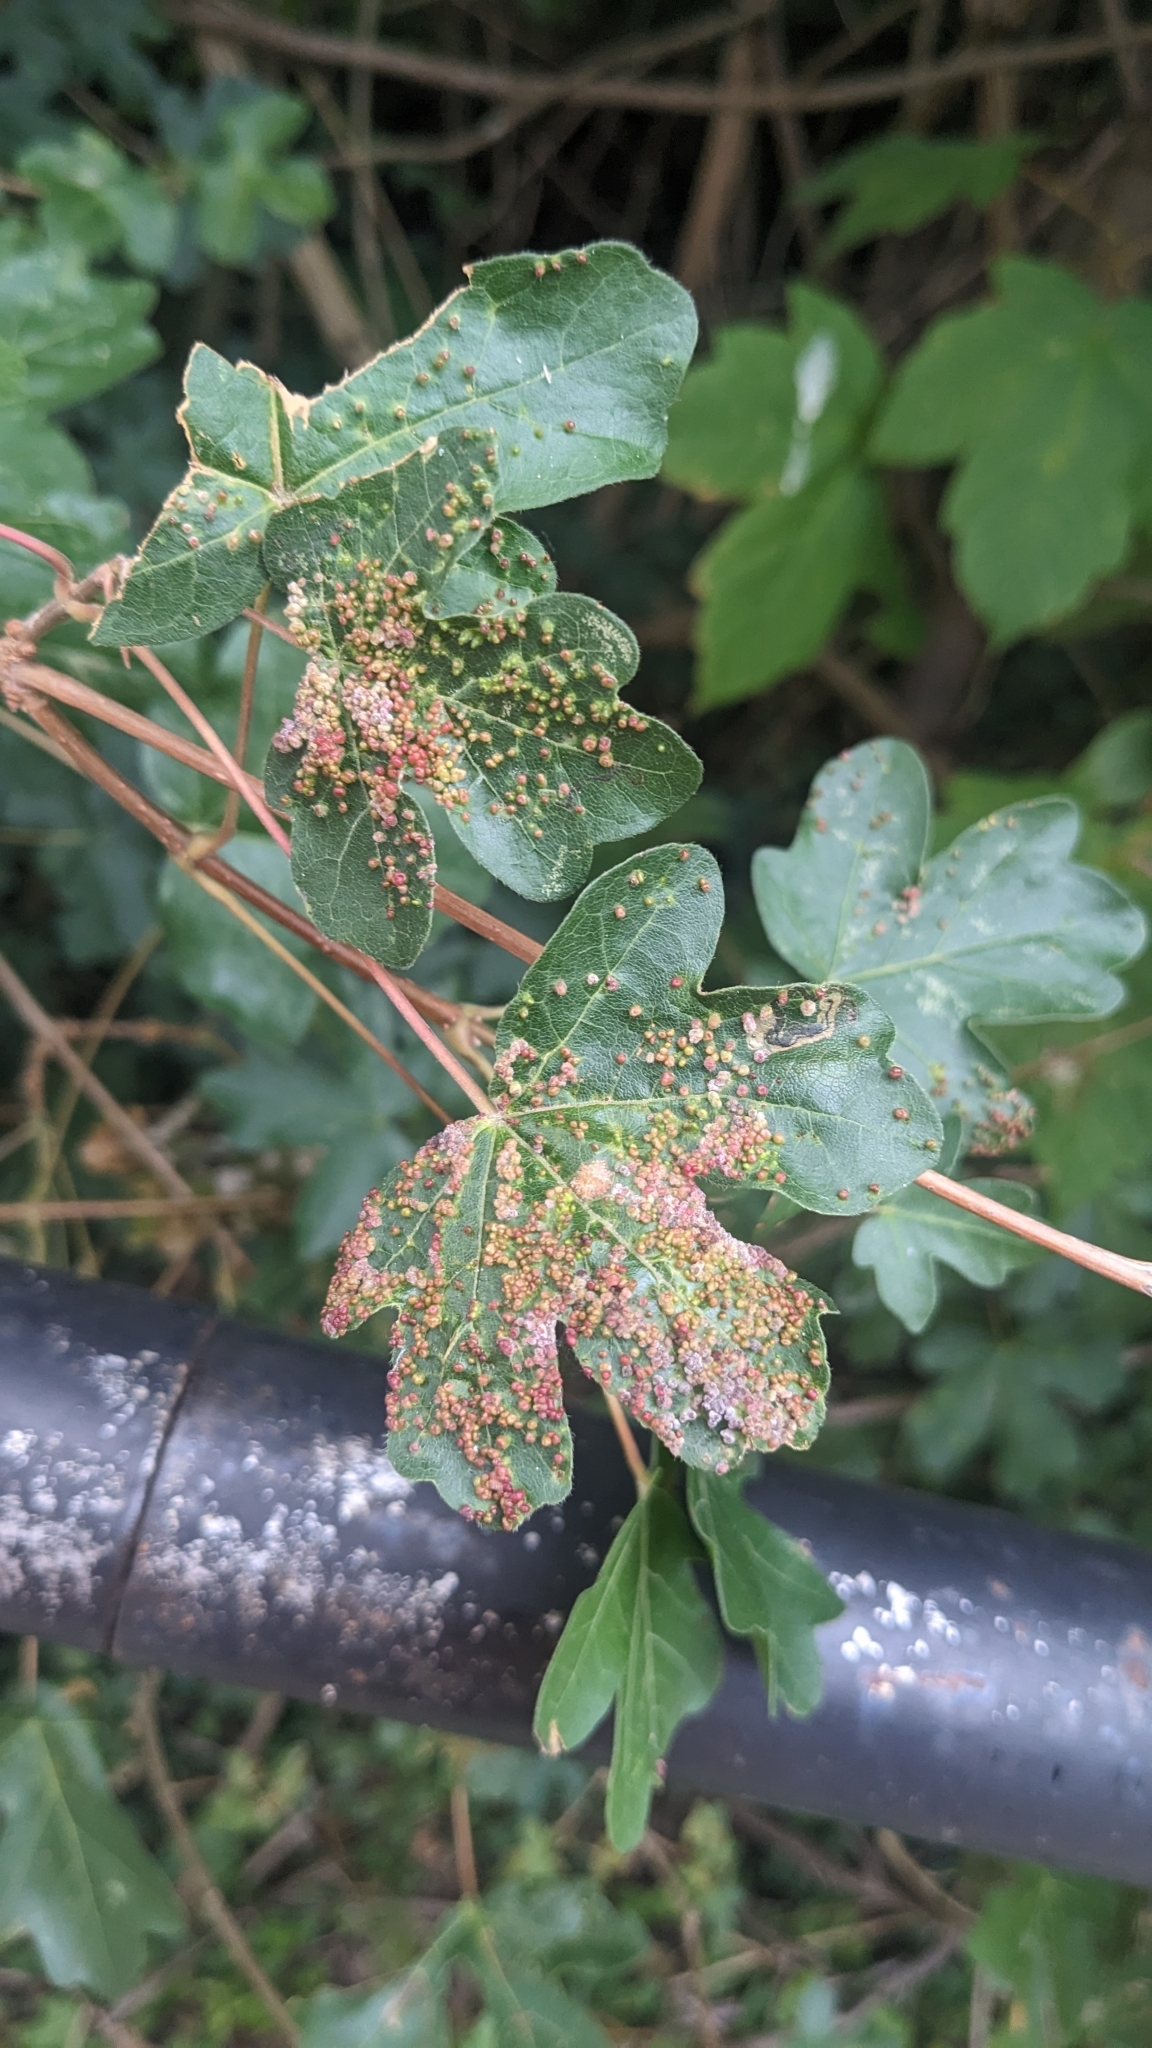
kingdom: Animalia
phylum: Arthropoda
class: Arachnida
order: Trombidiformes
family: Eriophyidae
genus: Aceria
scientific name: Aceria myriadeum
